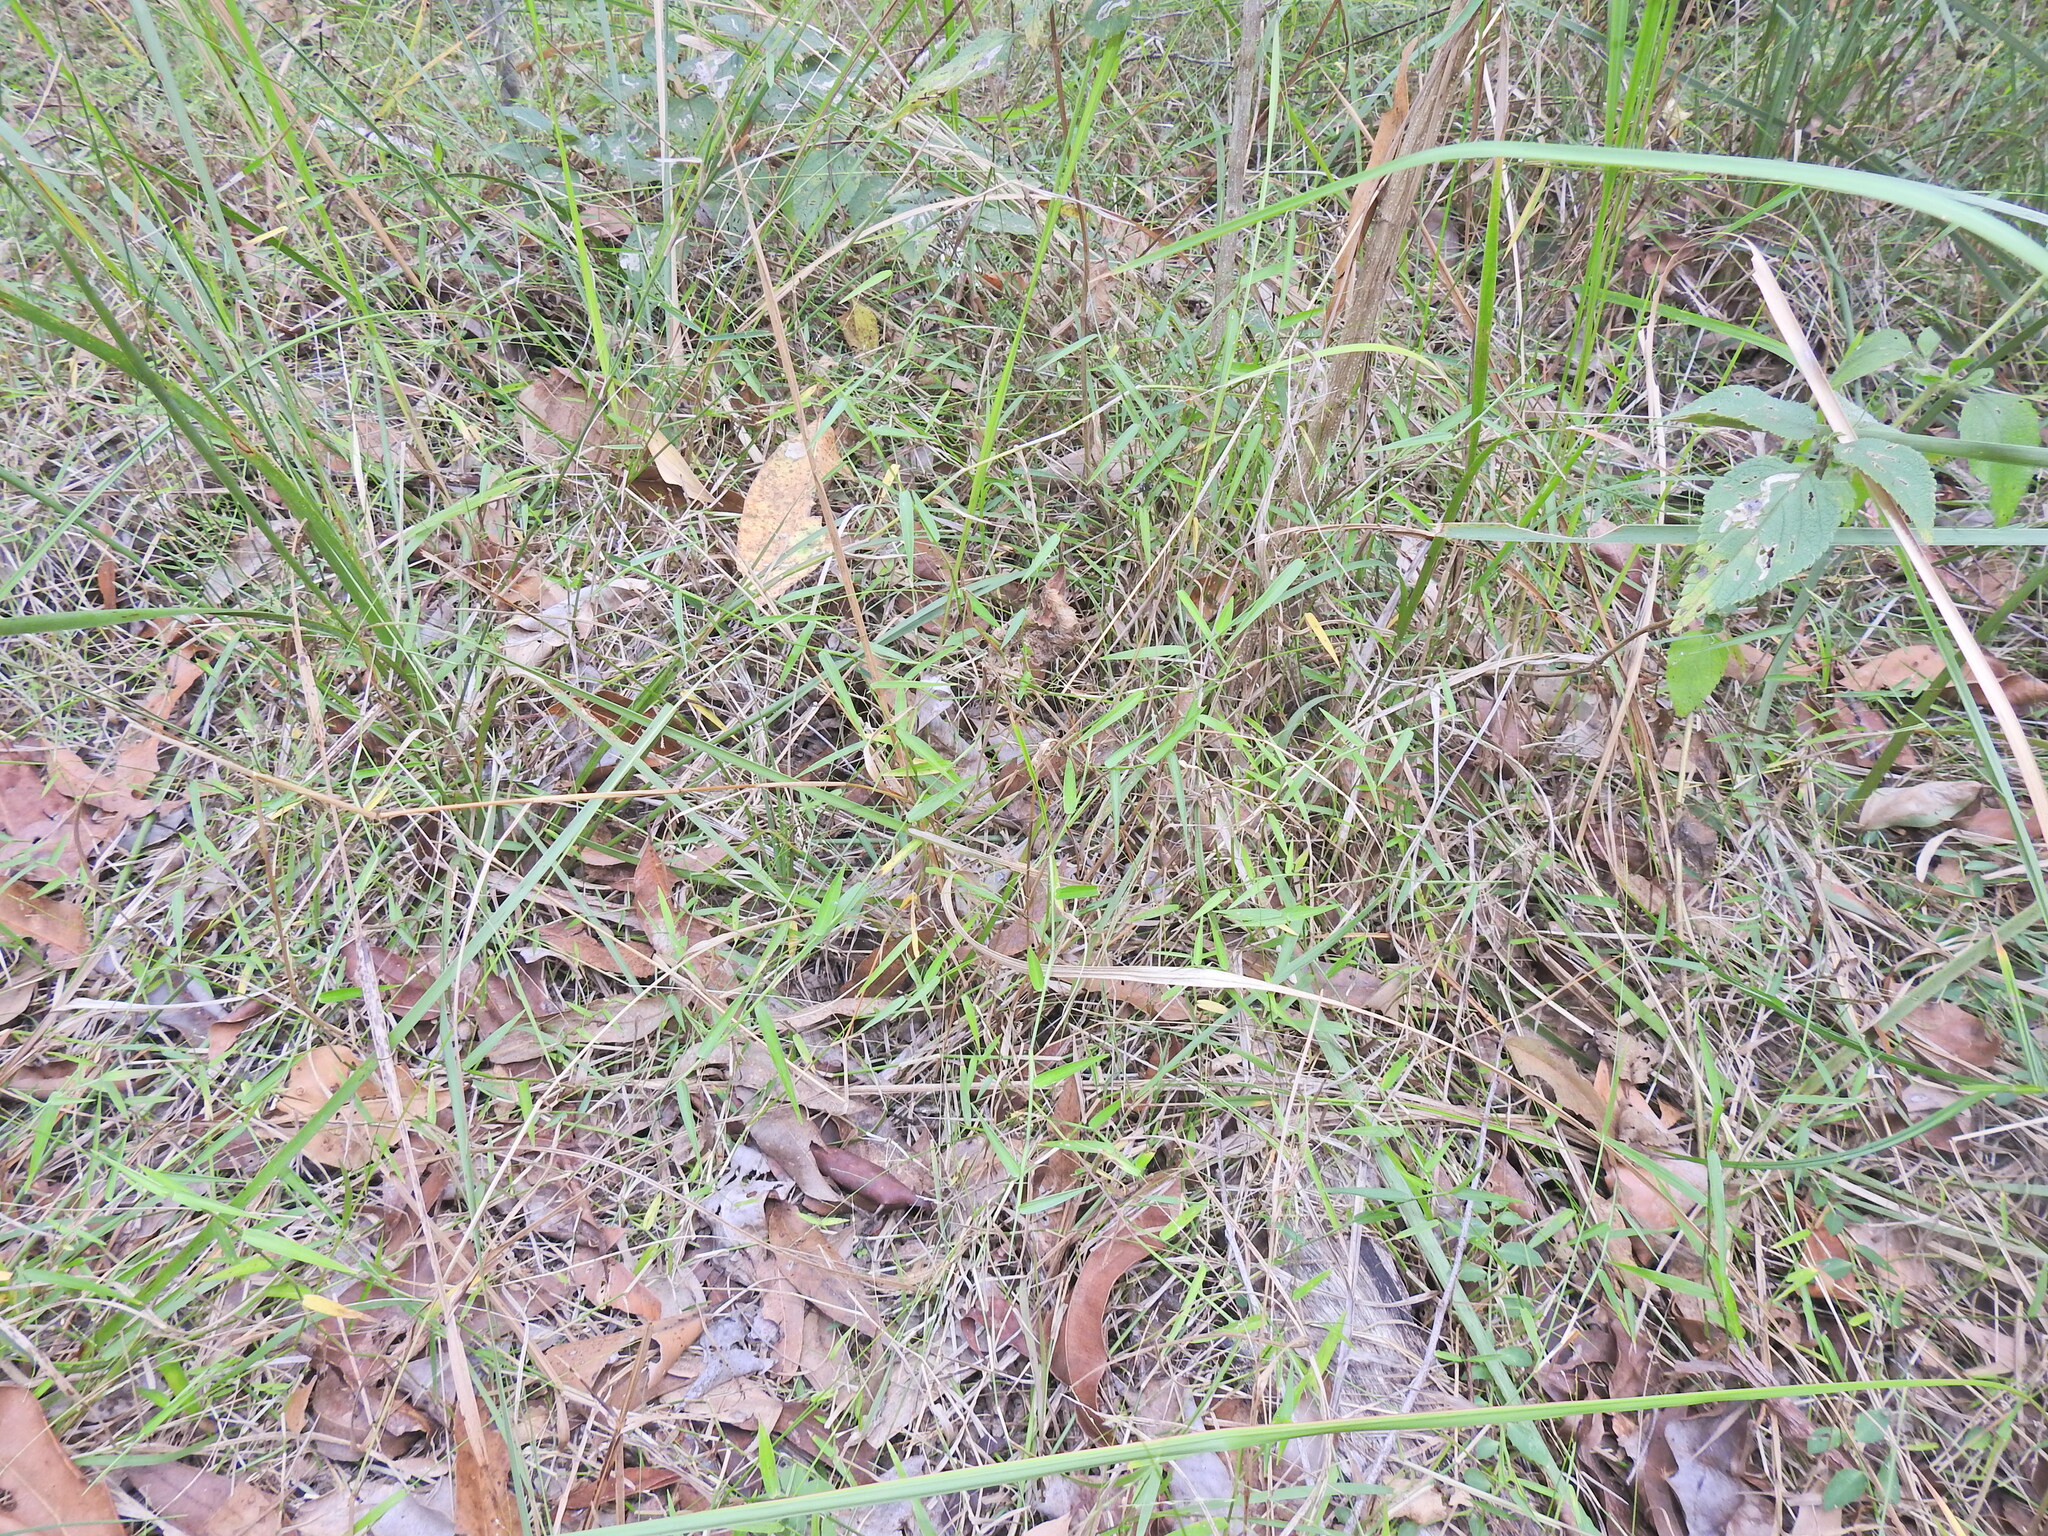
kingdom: Plantae
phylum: Tracheophyta
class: Liliopsida
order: Poales
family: Poaceae
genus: Ottochloa
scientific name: Ottochloa gracillima
